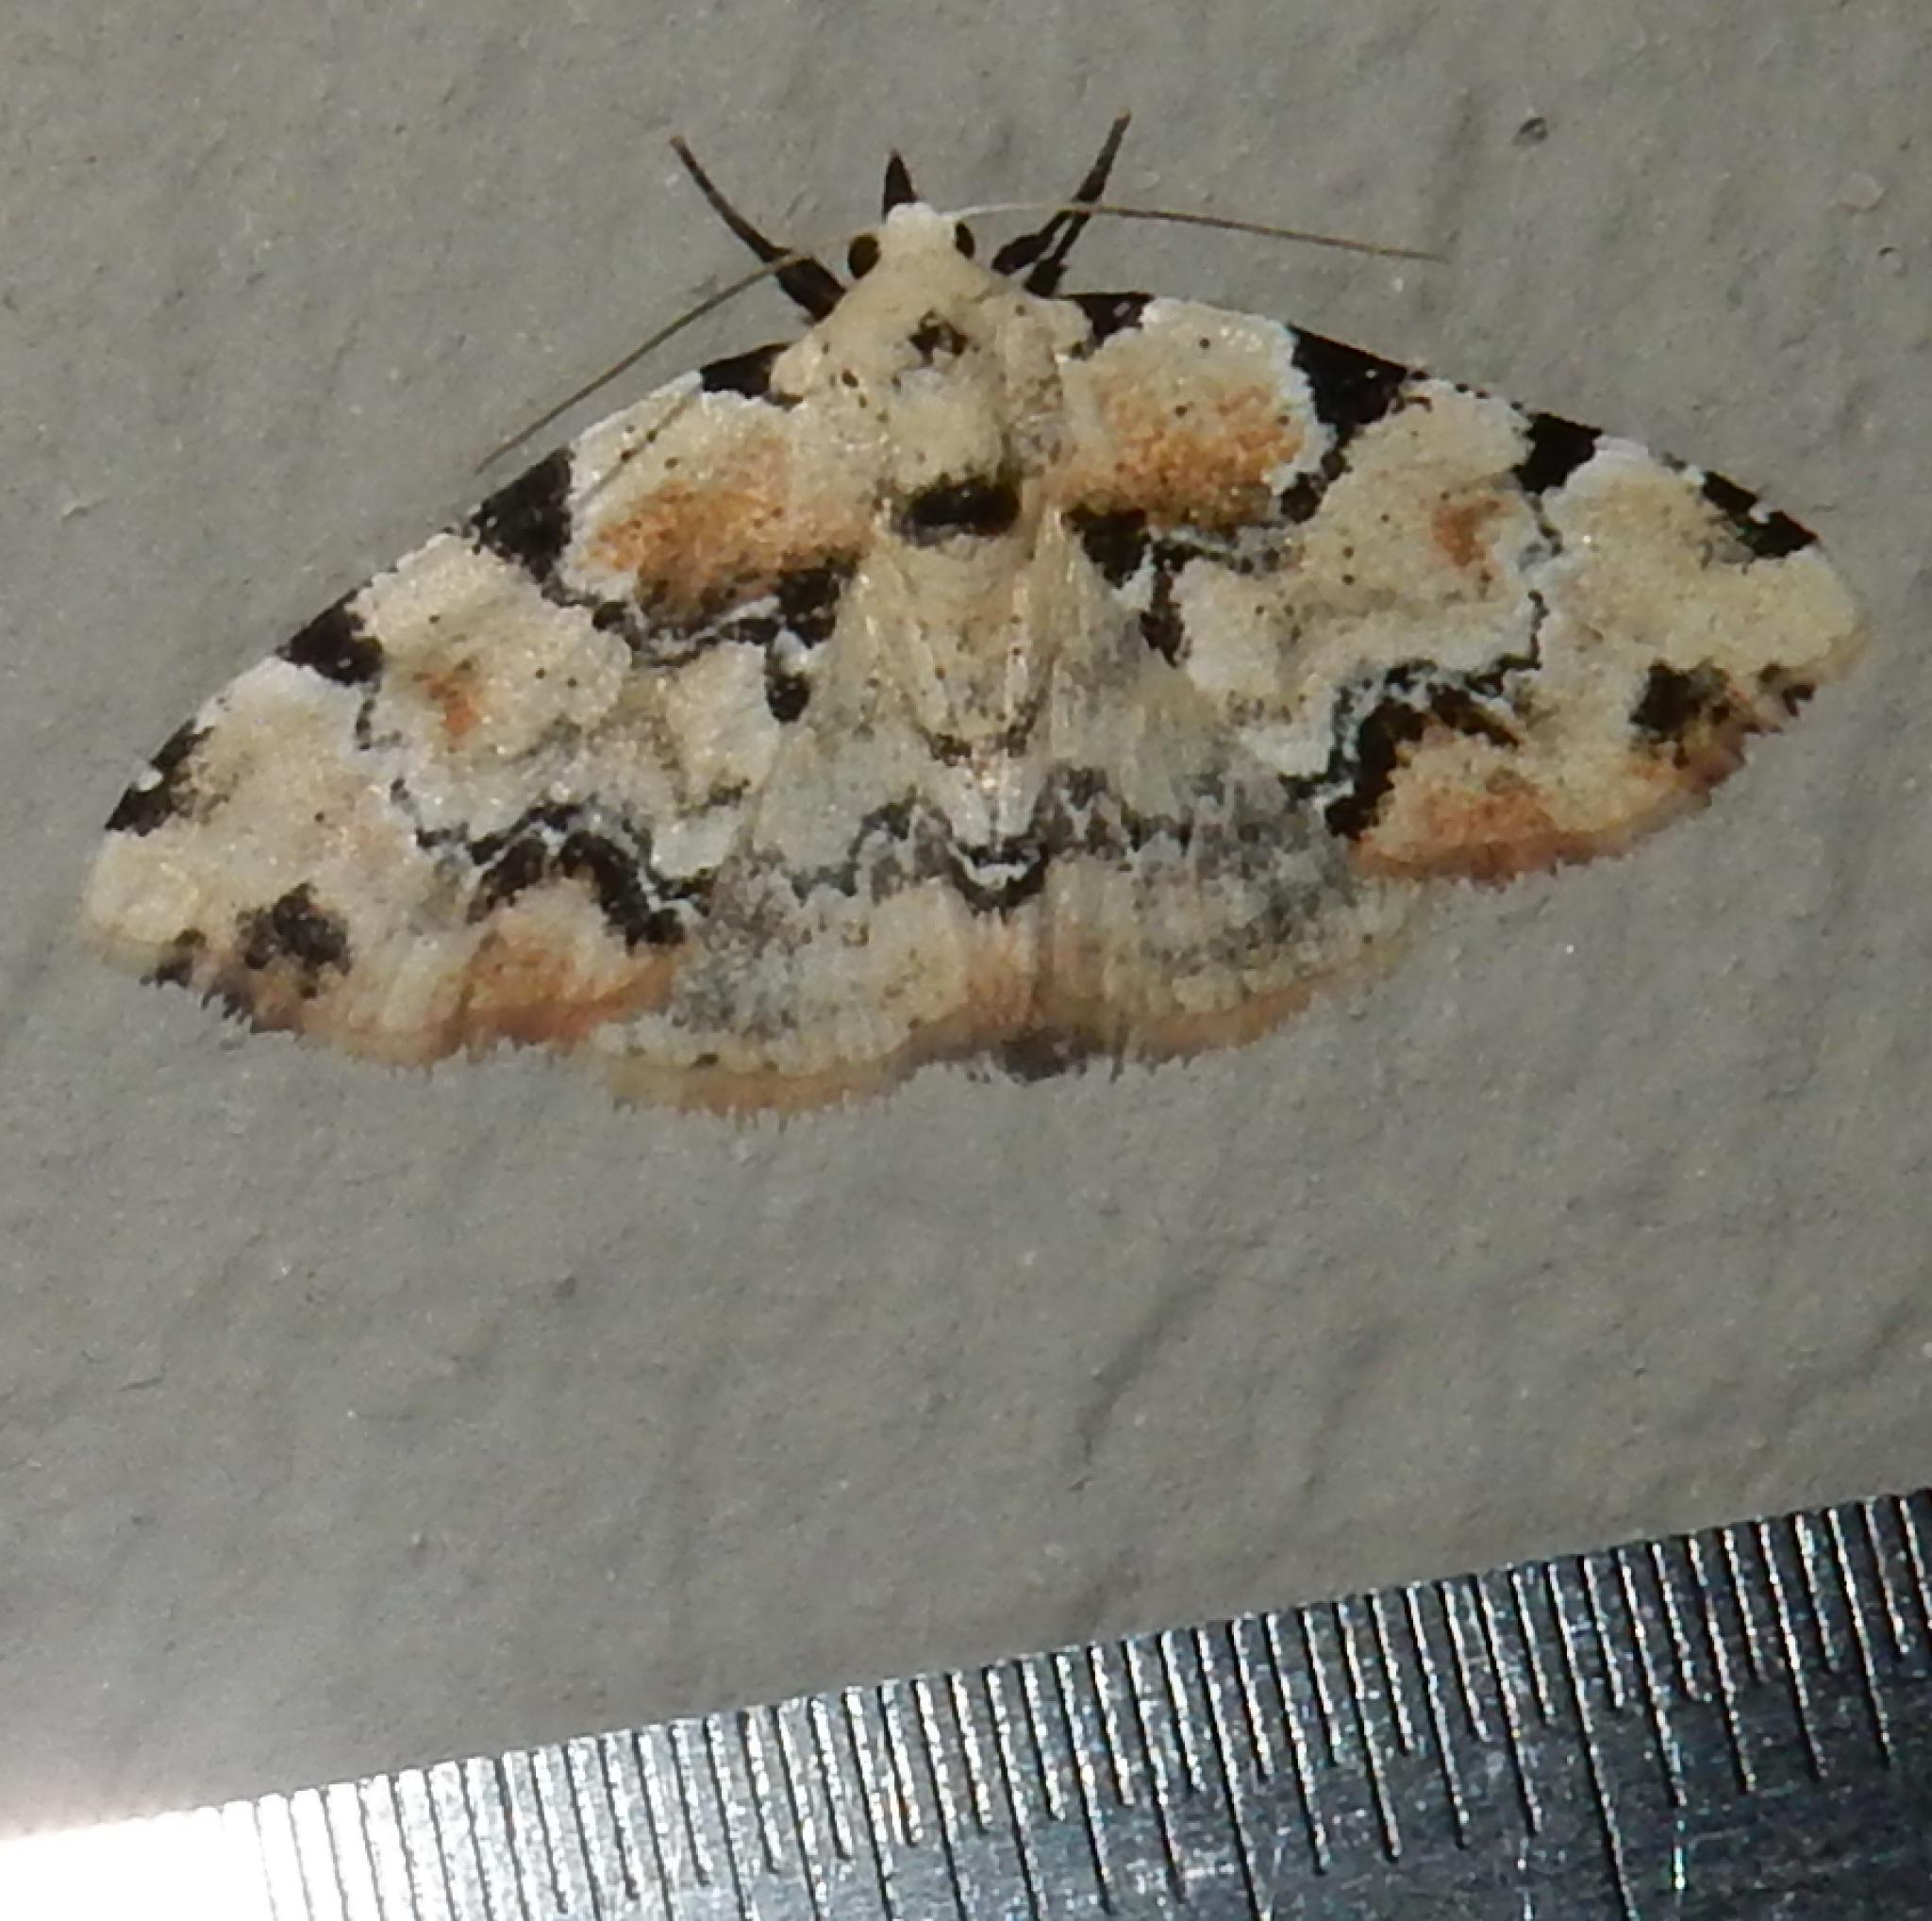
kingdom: Animalia
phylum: Arthropoda
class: Insecta
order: Lepidoptera
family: Noctuidae
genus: Tegiapa
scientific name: Tegiapa melanoleuca
